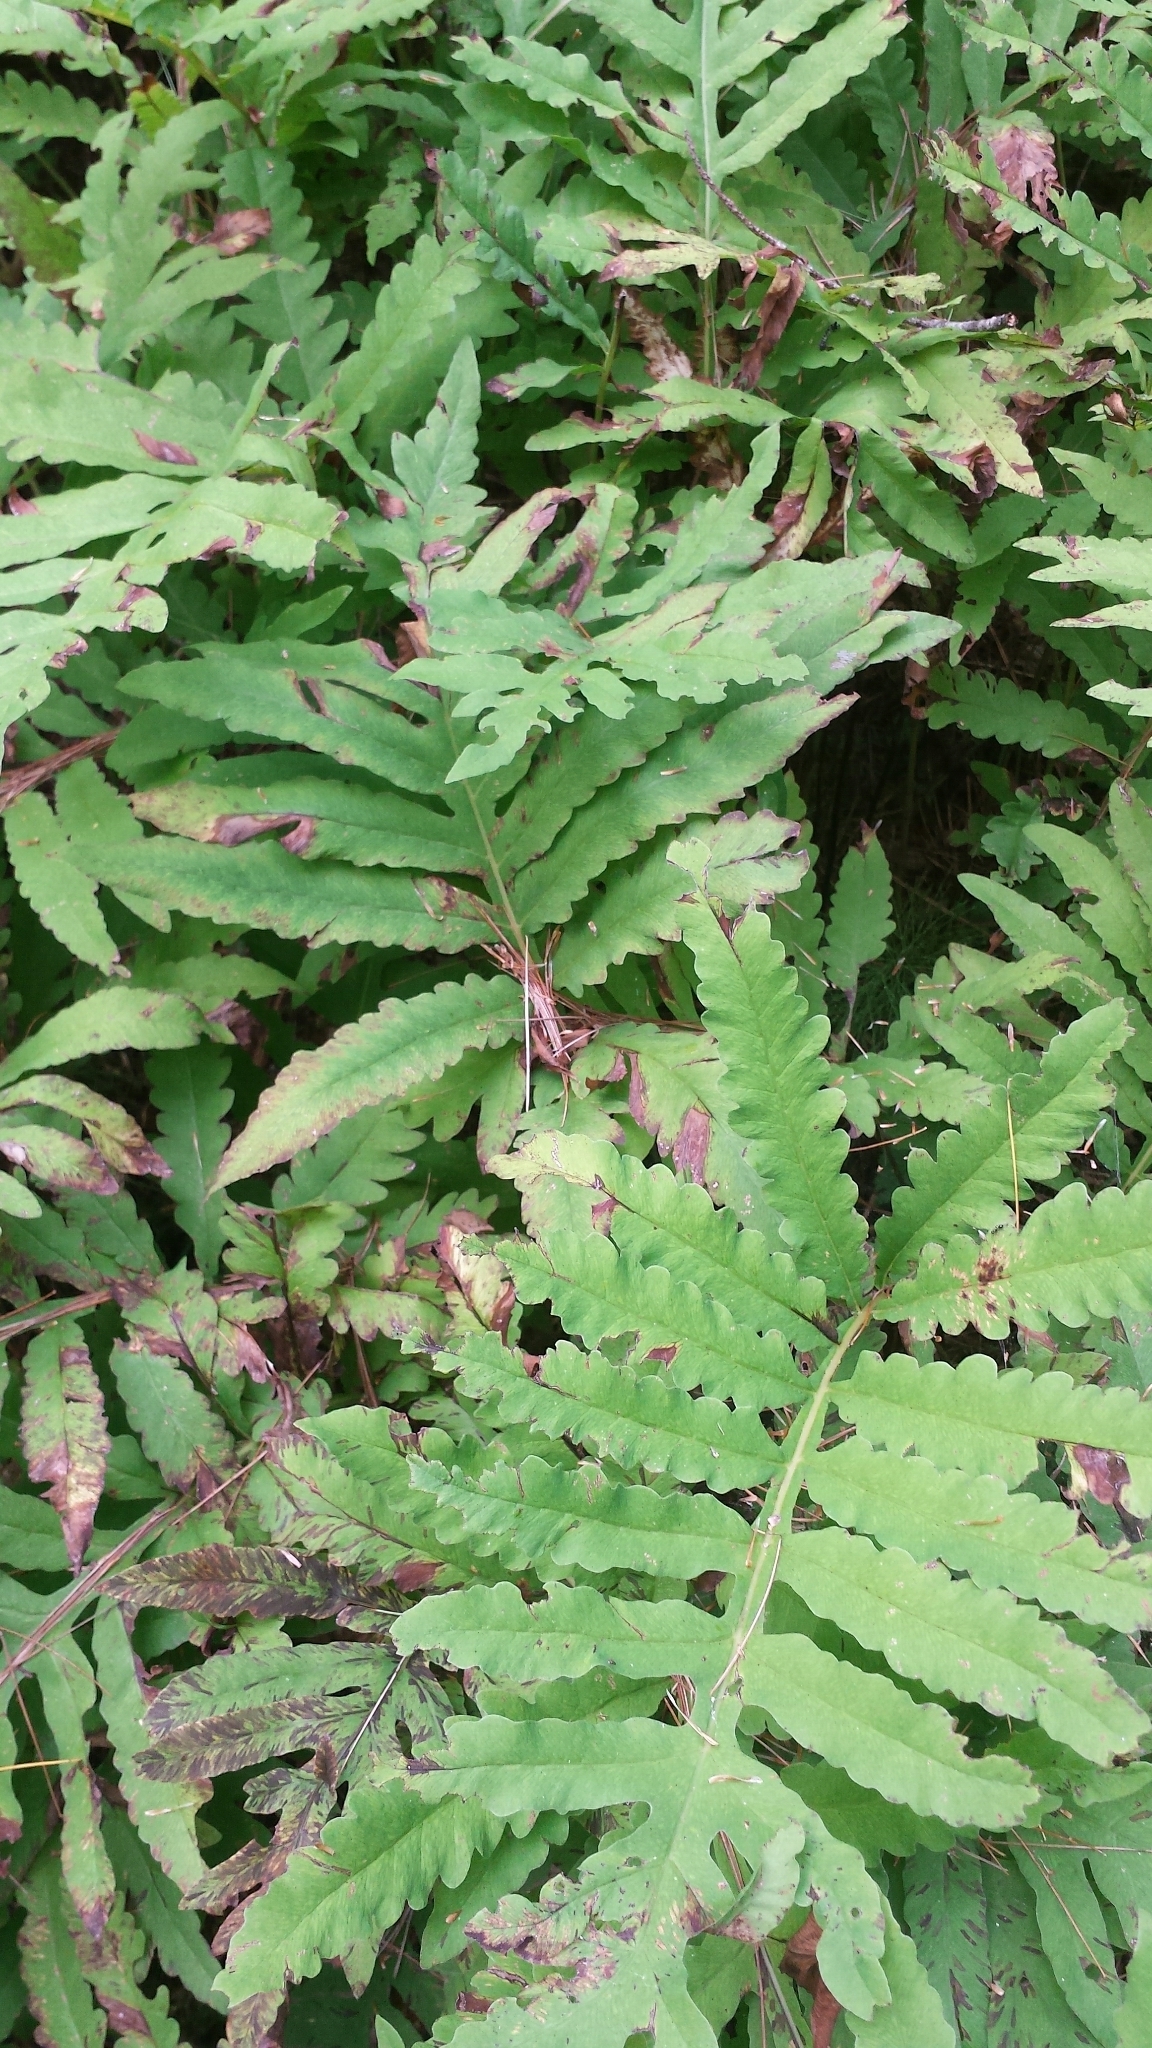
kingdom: Plantae
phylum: Tracheophyta
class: Polypodiopsida
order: Polypodiales
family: Onocleaceae
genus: Onoclea
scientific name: Onoclea sensibilis
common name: Sensitive fern
